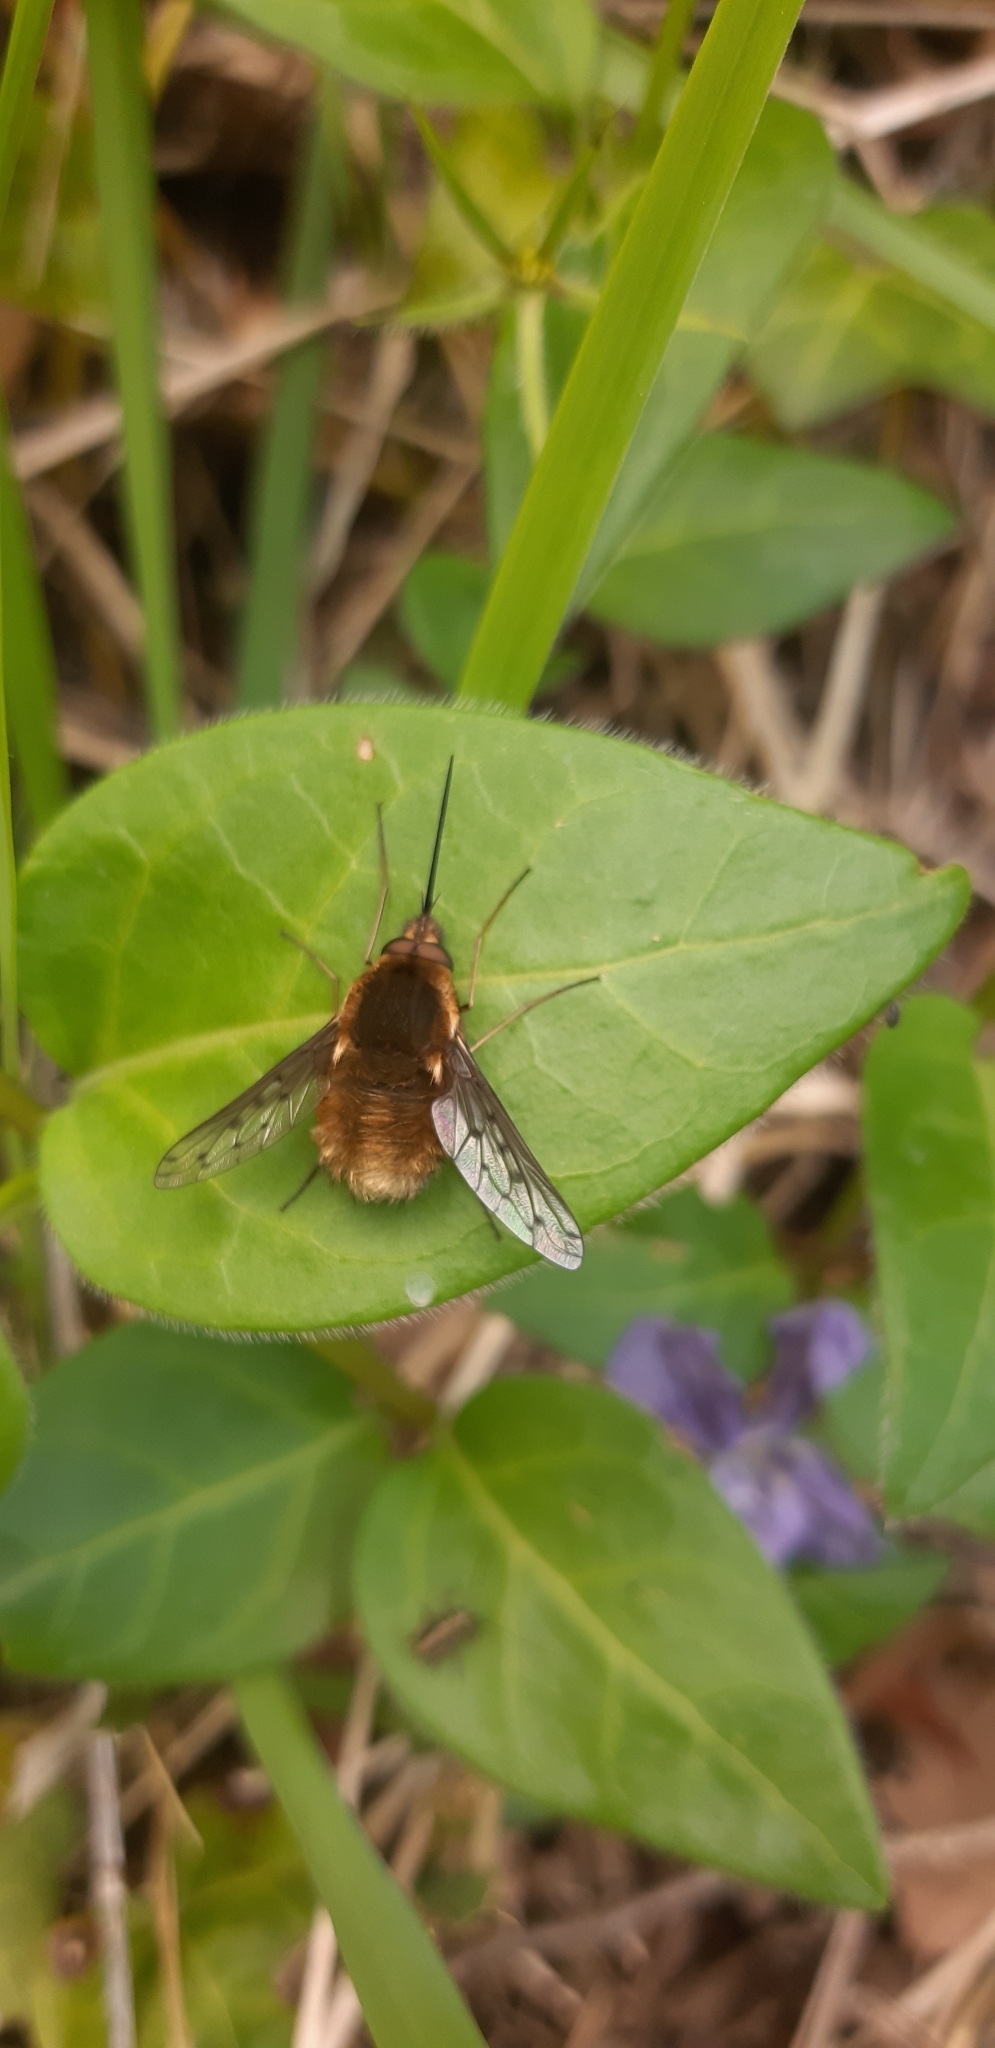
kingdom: Animalia
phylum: Arthropoda
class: Insecta
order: Diptera
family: Bombyliidae
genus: Bombylius
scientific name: Bombylius medius
